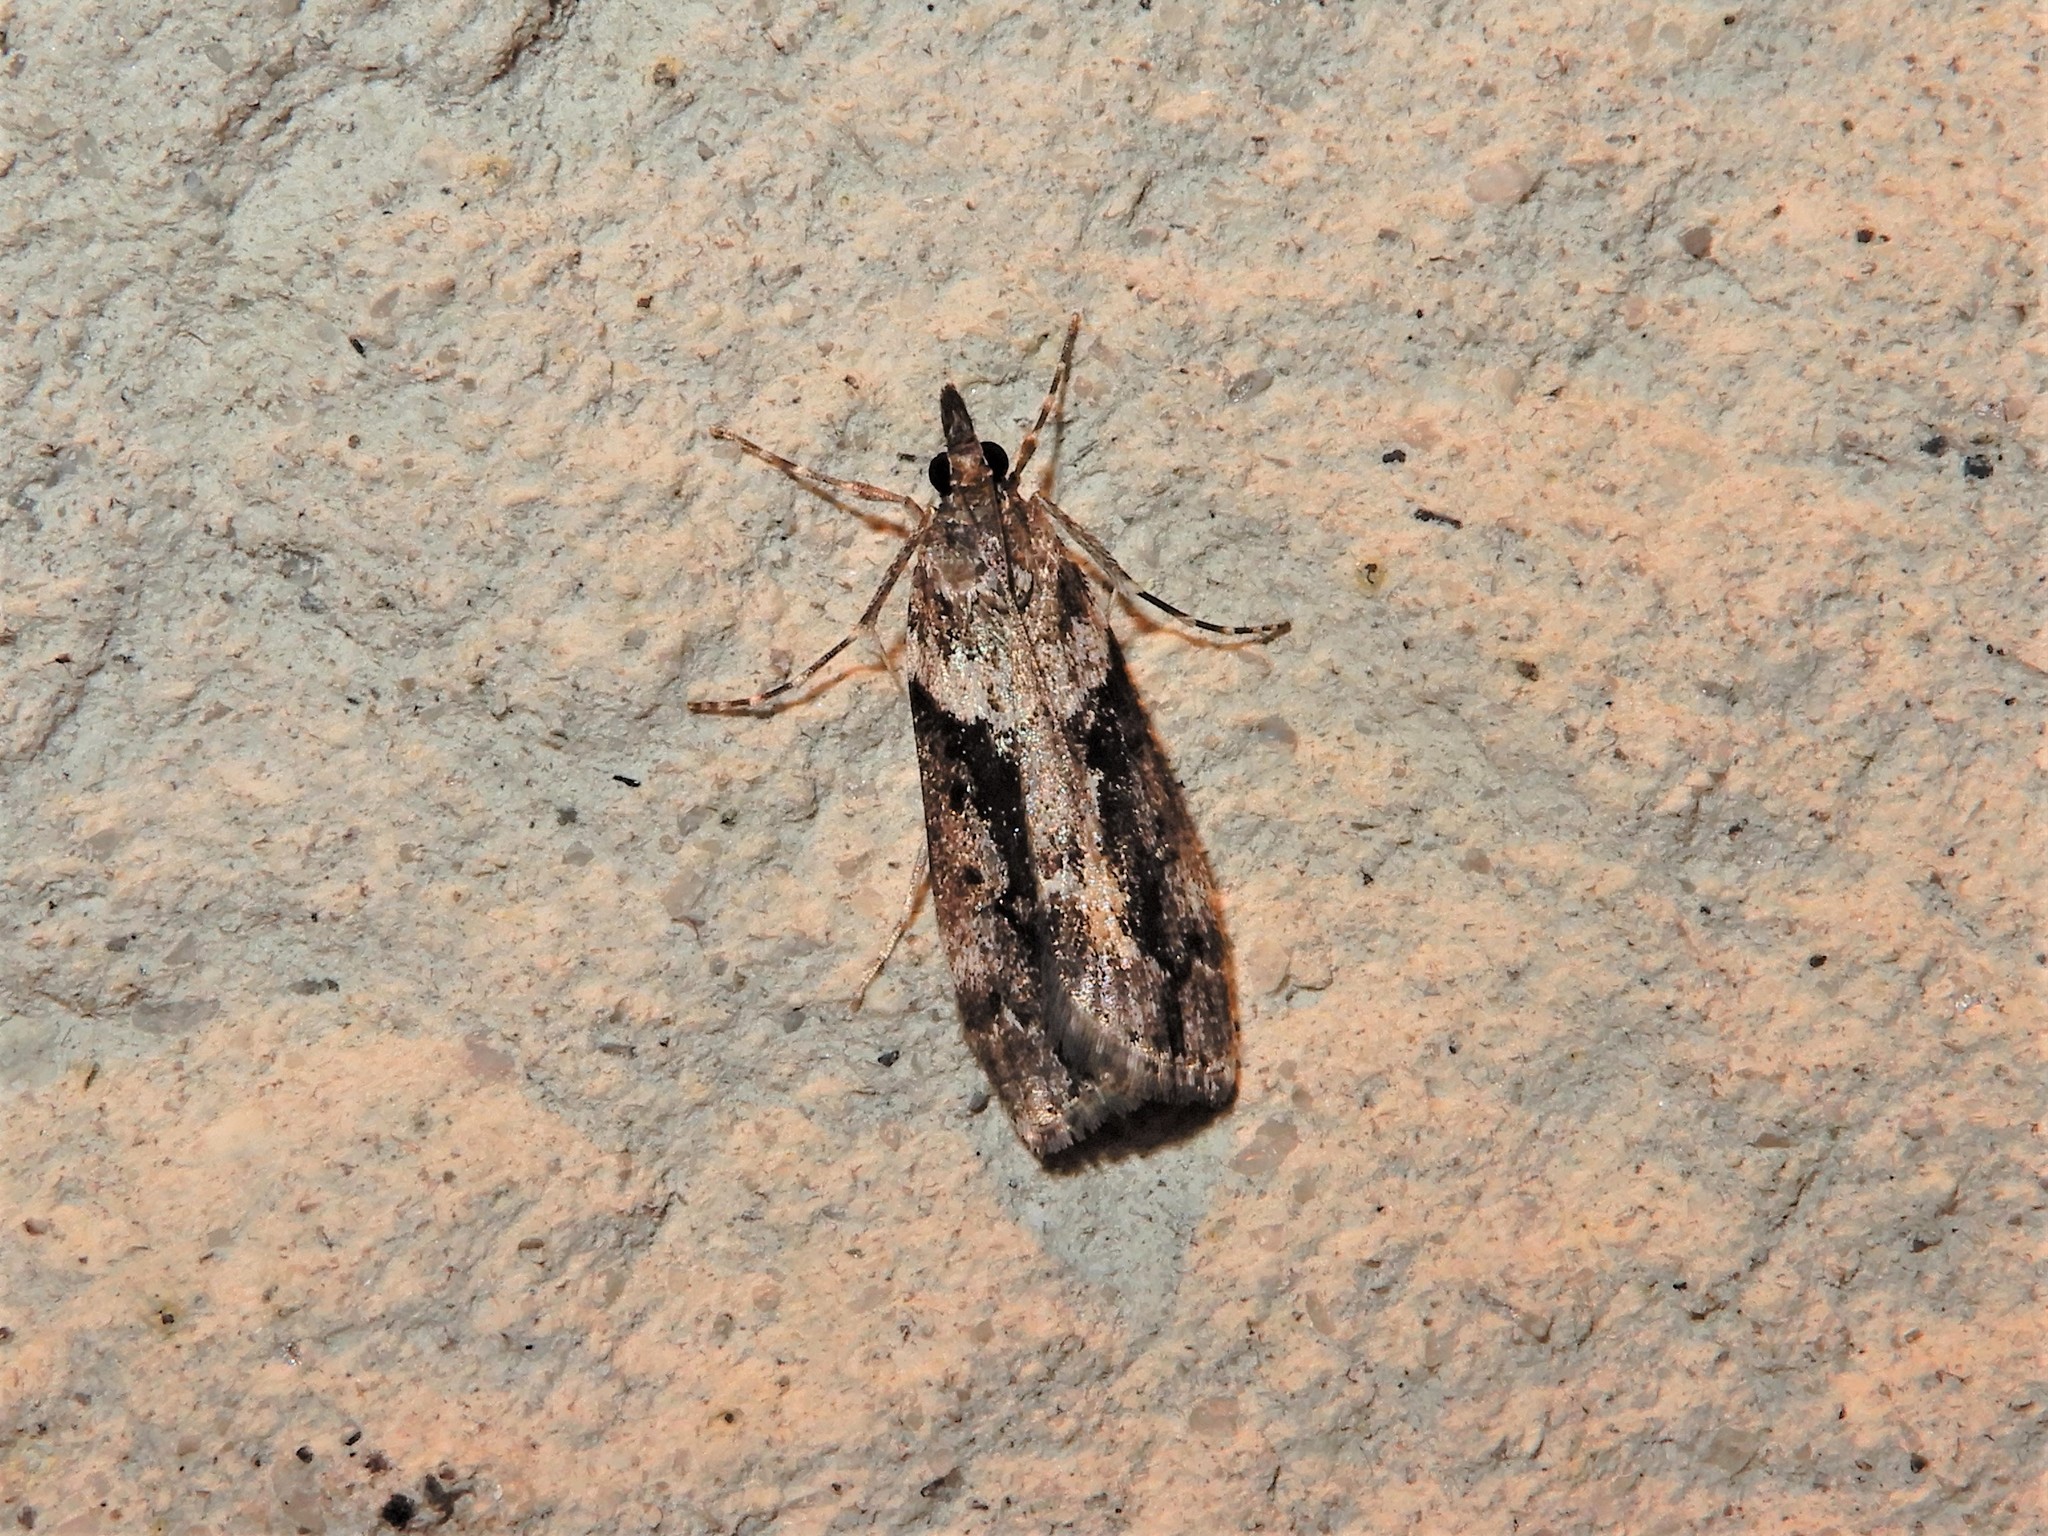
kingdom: Animalia
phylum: Arthropoda
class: Insecta
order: Lepidoptera
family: Crambidae
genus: Eudonia
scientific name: Eudonia submarginalis
